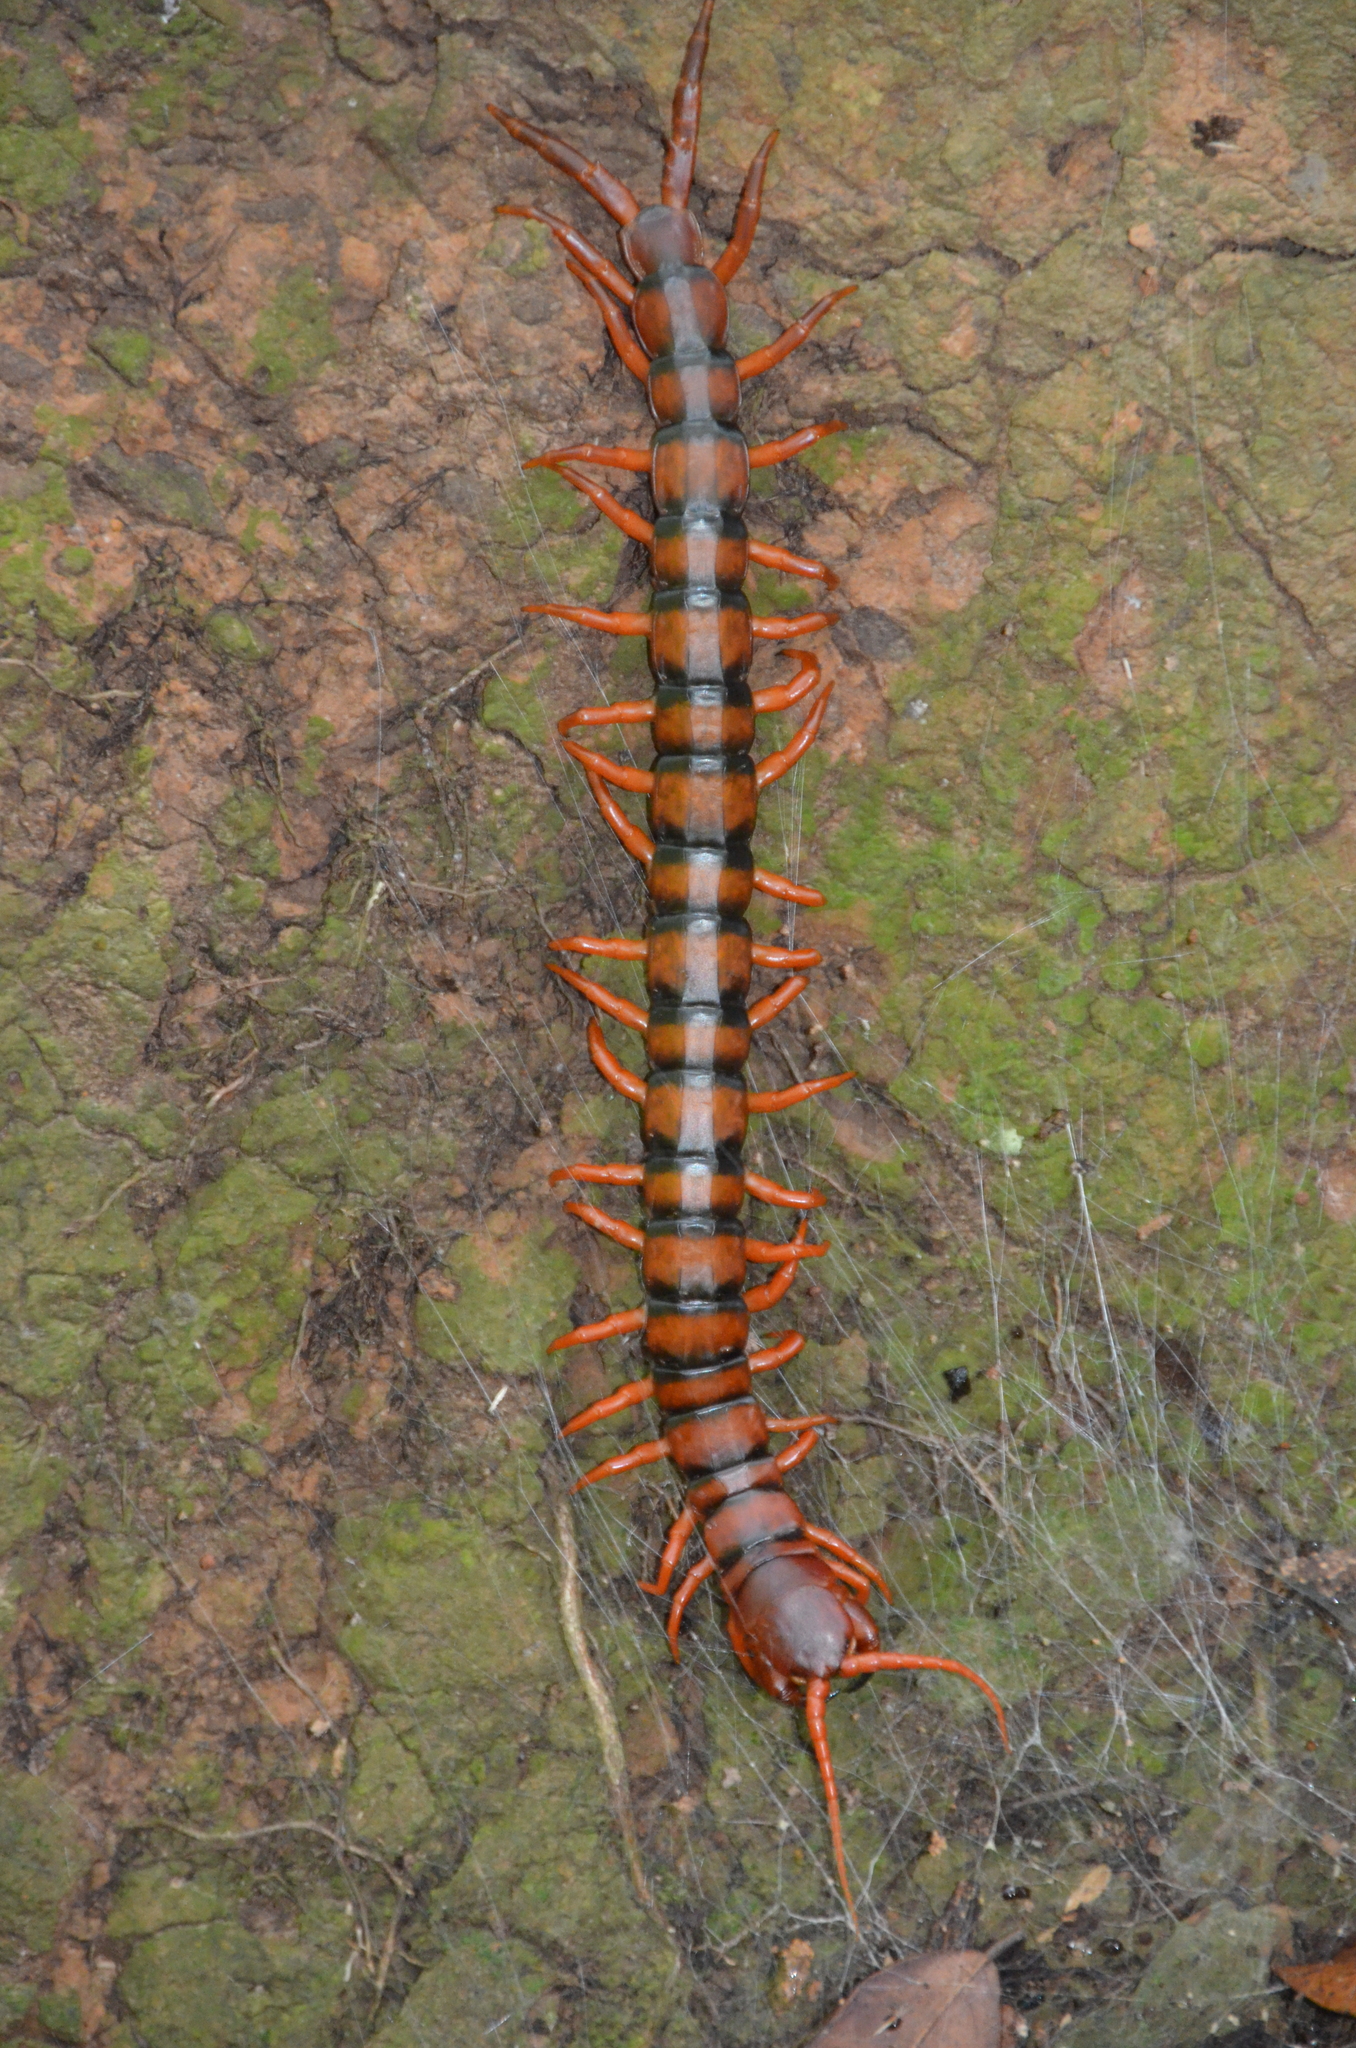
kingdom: Animalia
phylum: Arthropoda
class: Chilopoda
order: Scolopendromorpha
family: Scolopendridae
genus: Scolopendra
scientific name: Scolopendra dawydoffi
